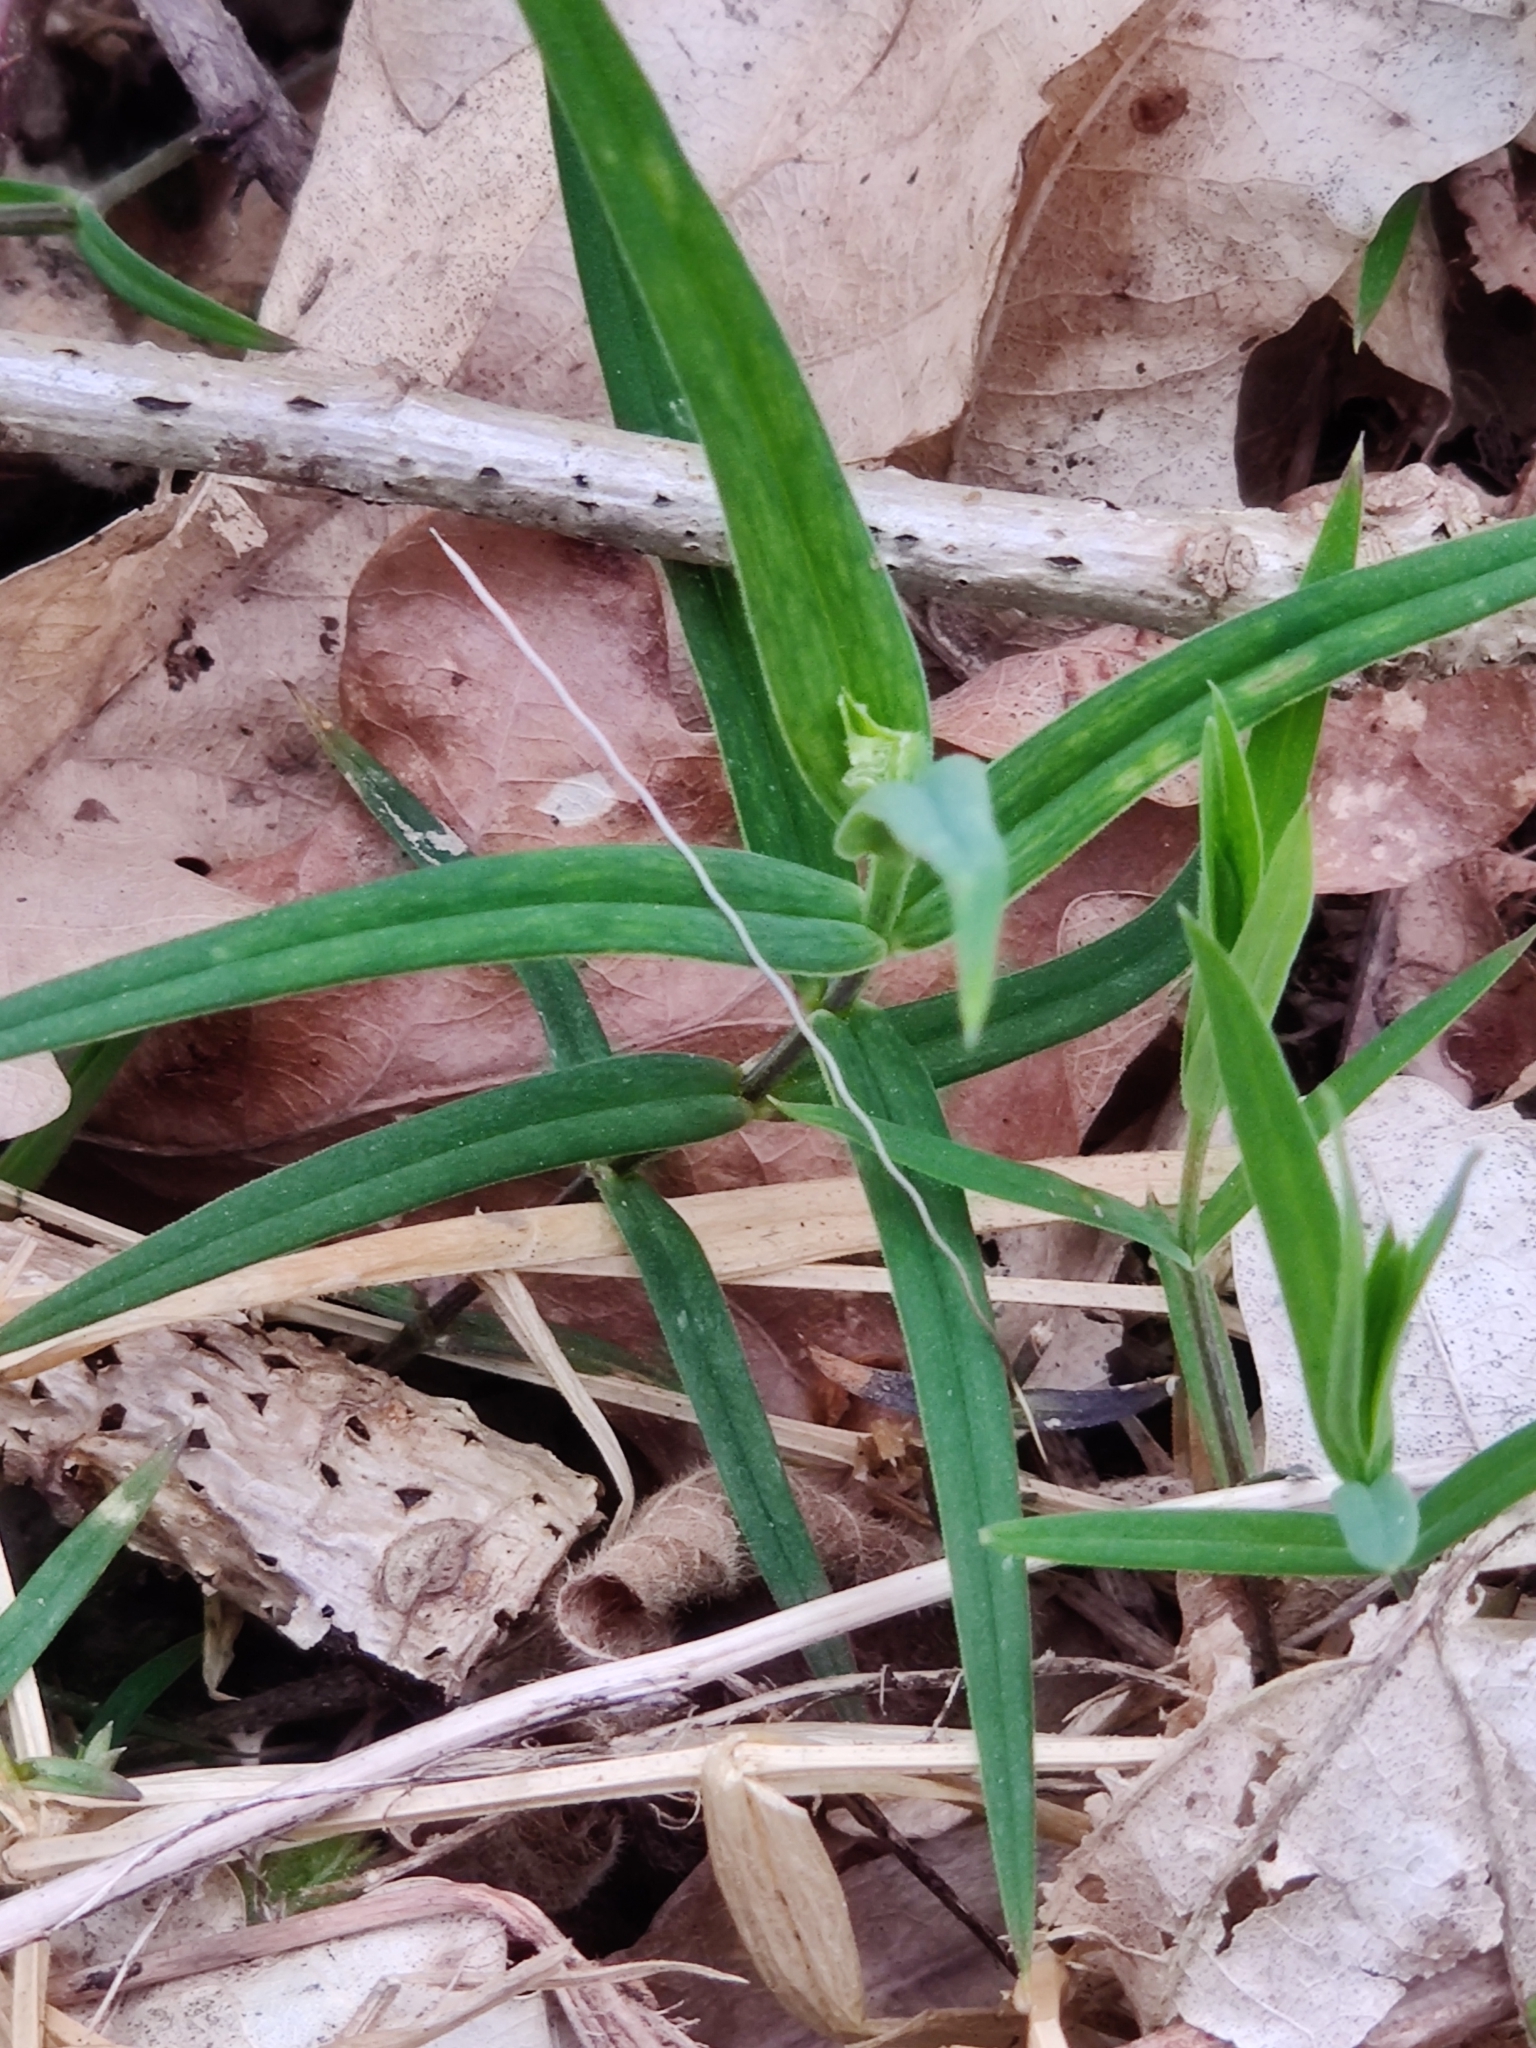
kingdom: Plantae
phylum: Tracheophyta
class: Magnoliopsida
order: Caryophyllales
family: Caryophyllaceae
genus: Rabelera
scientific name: Rabelera holostea
